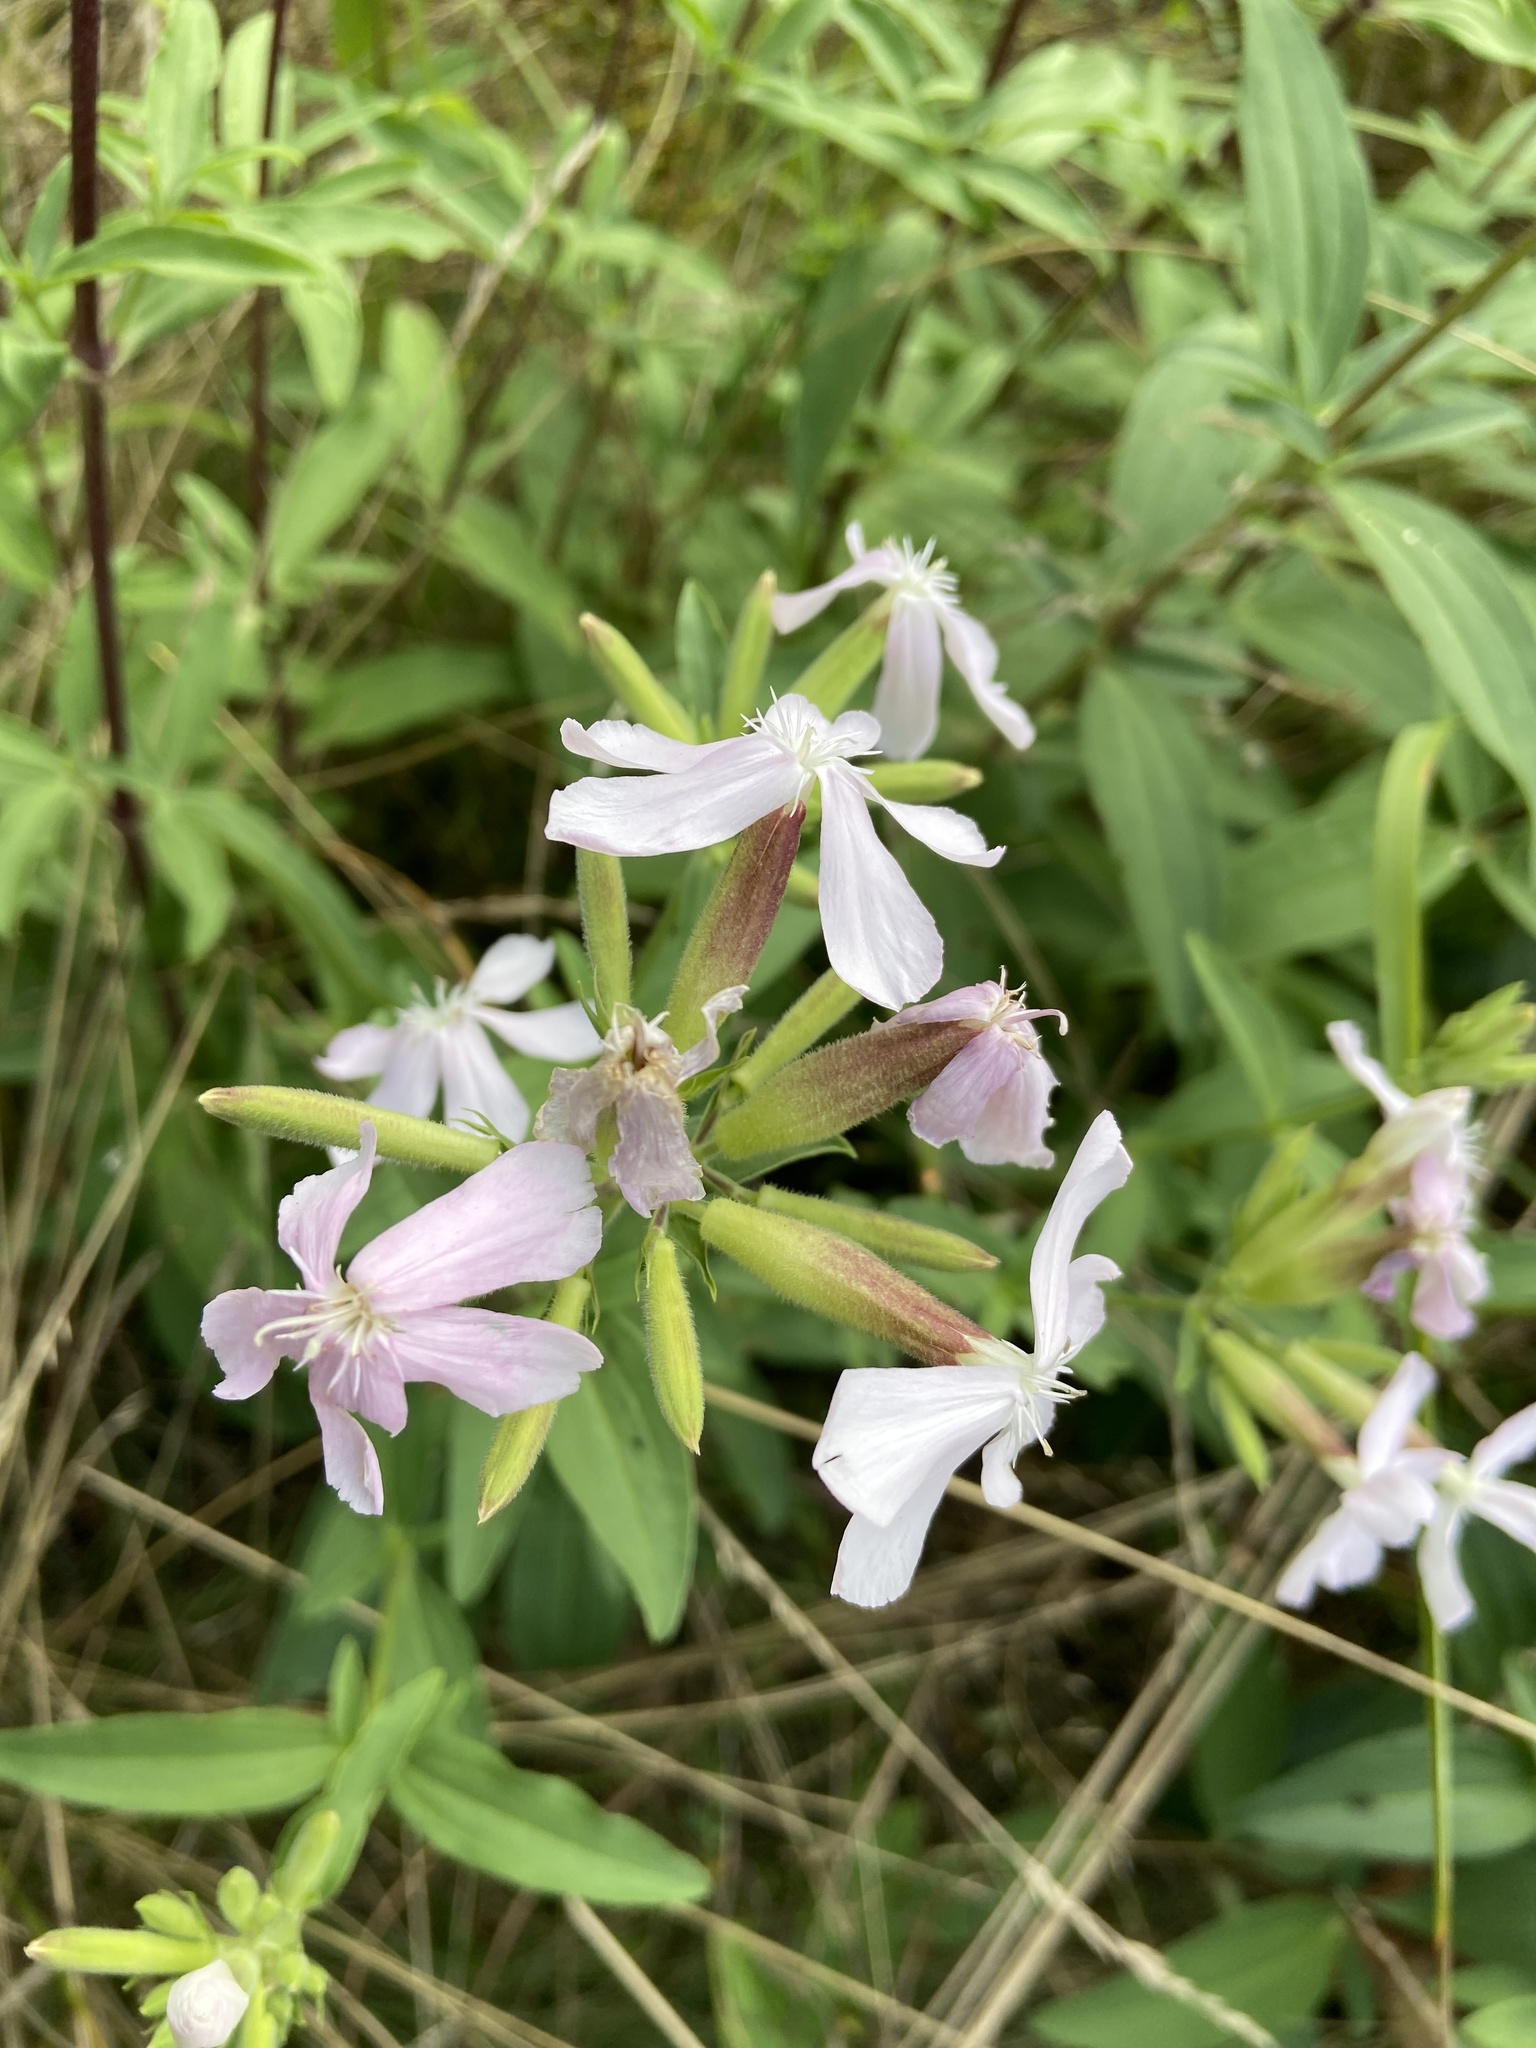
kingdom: Plantae
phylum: Tracheophyta
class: Magnoliopsida
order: Caryophyllales
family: Caryophyllaceae
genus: Saponaria
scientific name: Saponaria officinalis
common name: Soapwort
